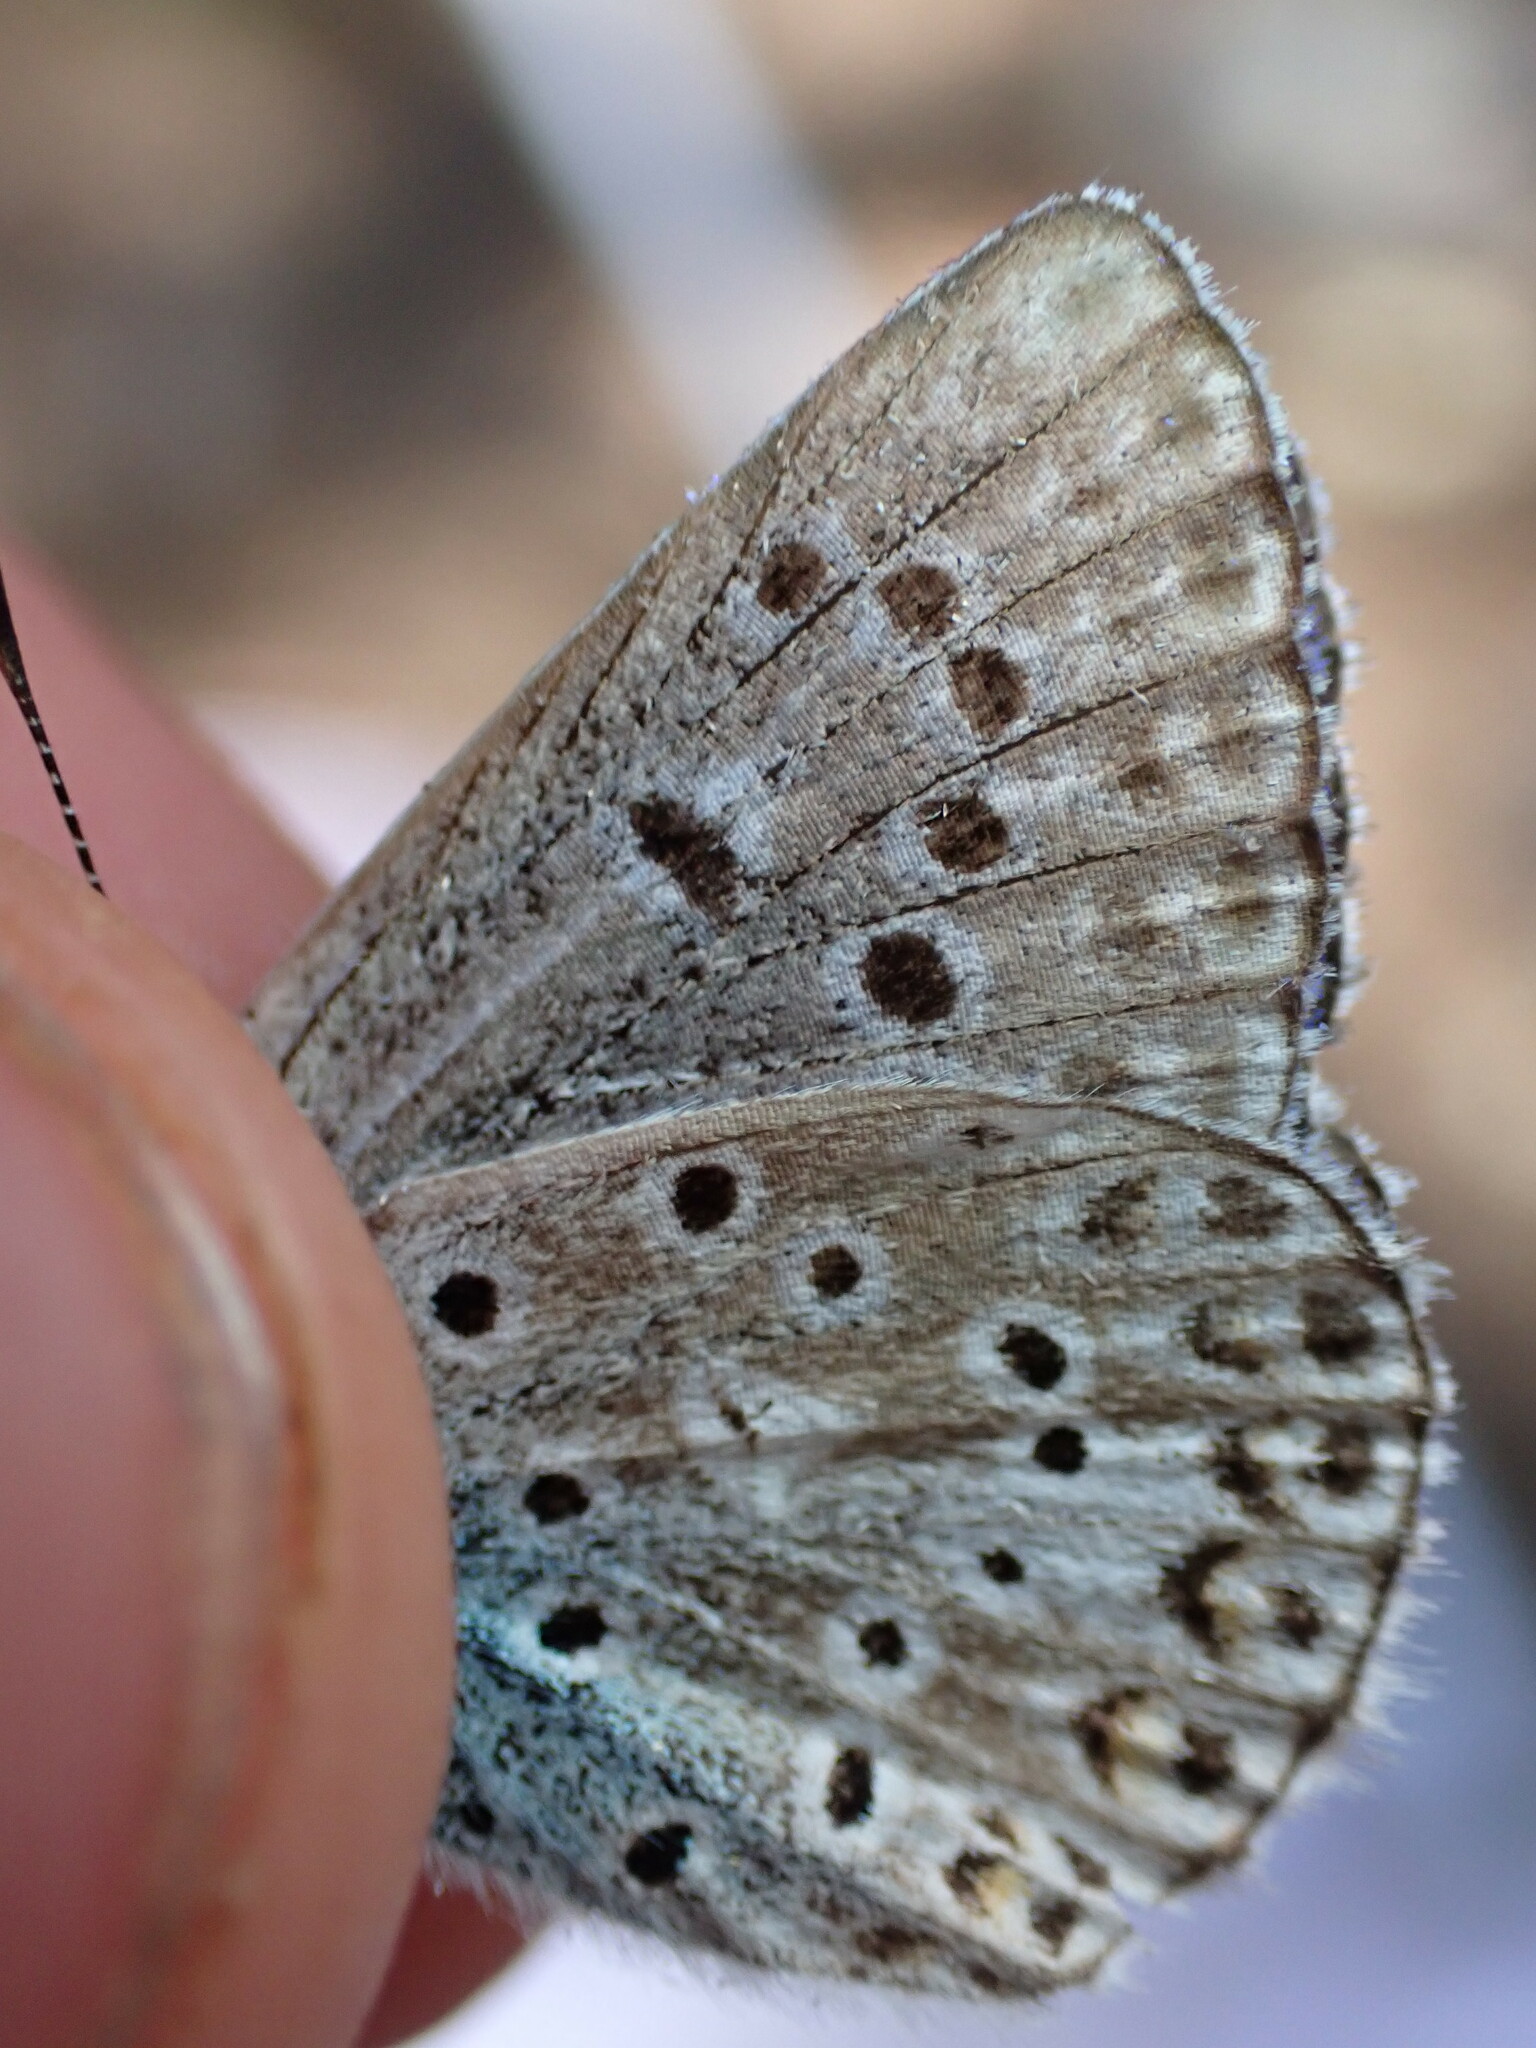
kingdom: Animalia
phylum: Arthropoda
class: Insecta
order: Lepidoptera
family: Lycaenidae
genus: Plebicula
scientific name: Plebicula escheri
